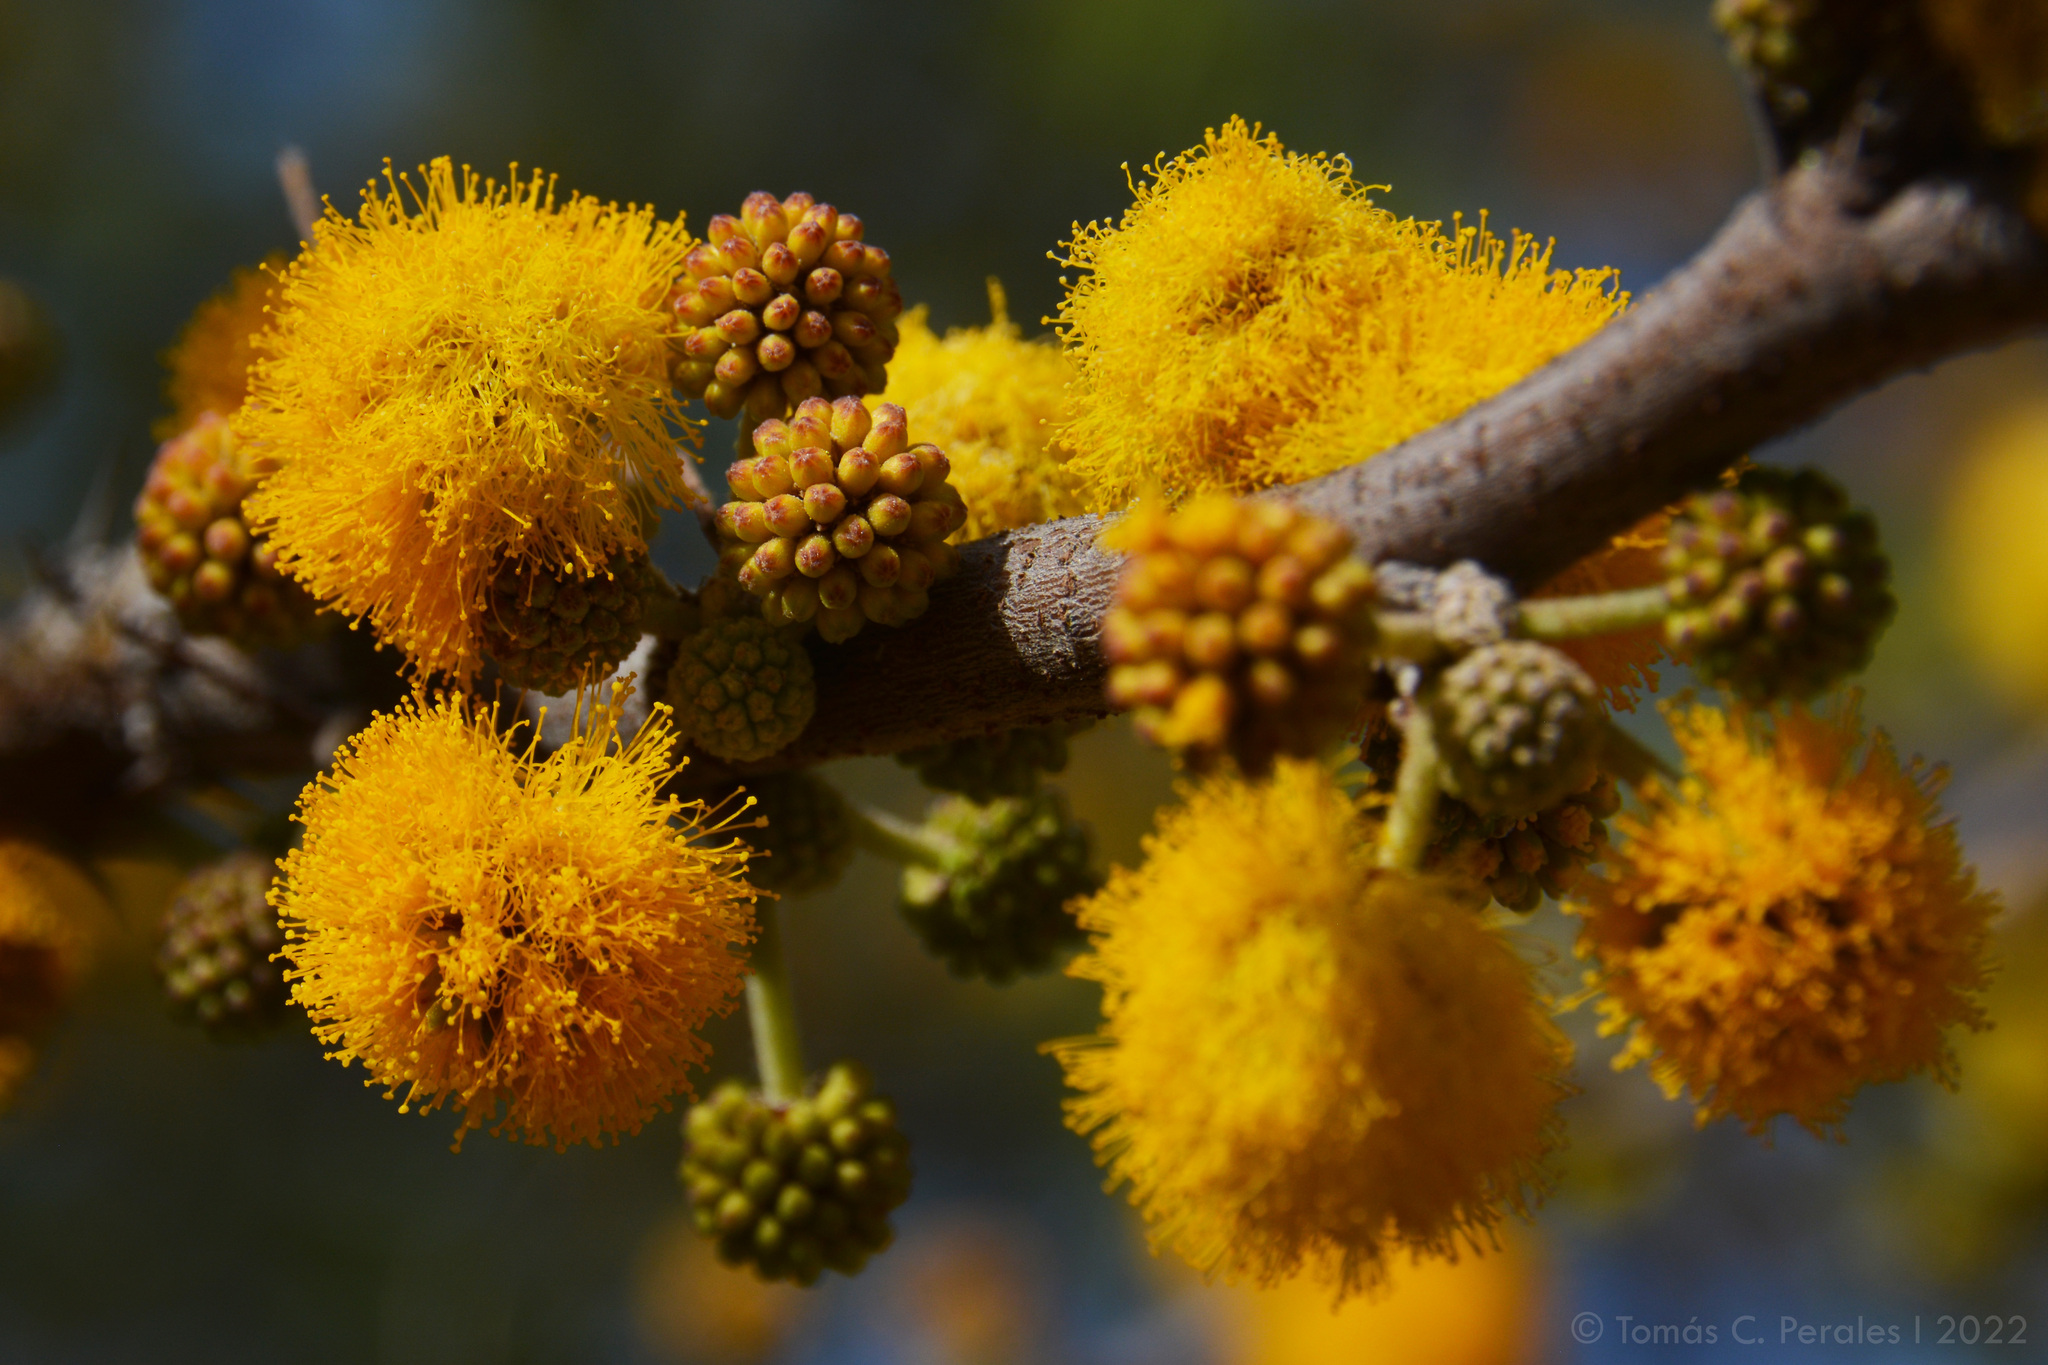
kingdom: Plantae
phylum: Tracheophyta
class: Magnoliopsida
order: Fabales
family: Fabaceae
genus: Vachellia
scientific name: Vachellia caven
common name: Roman cassie
